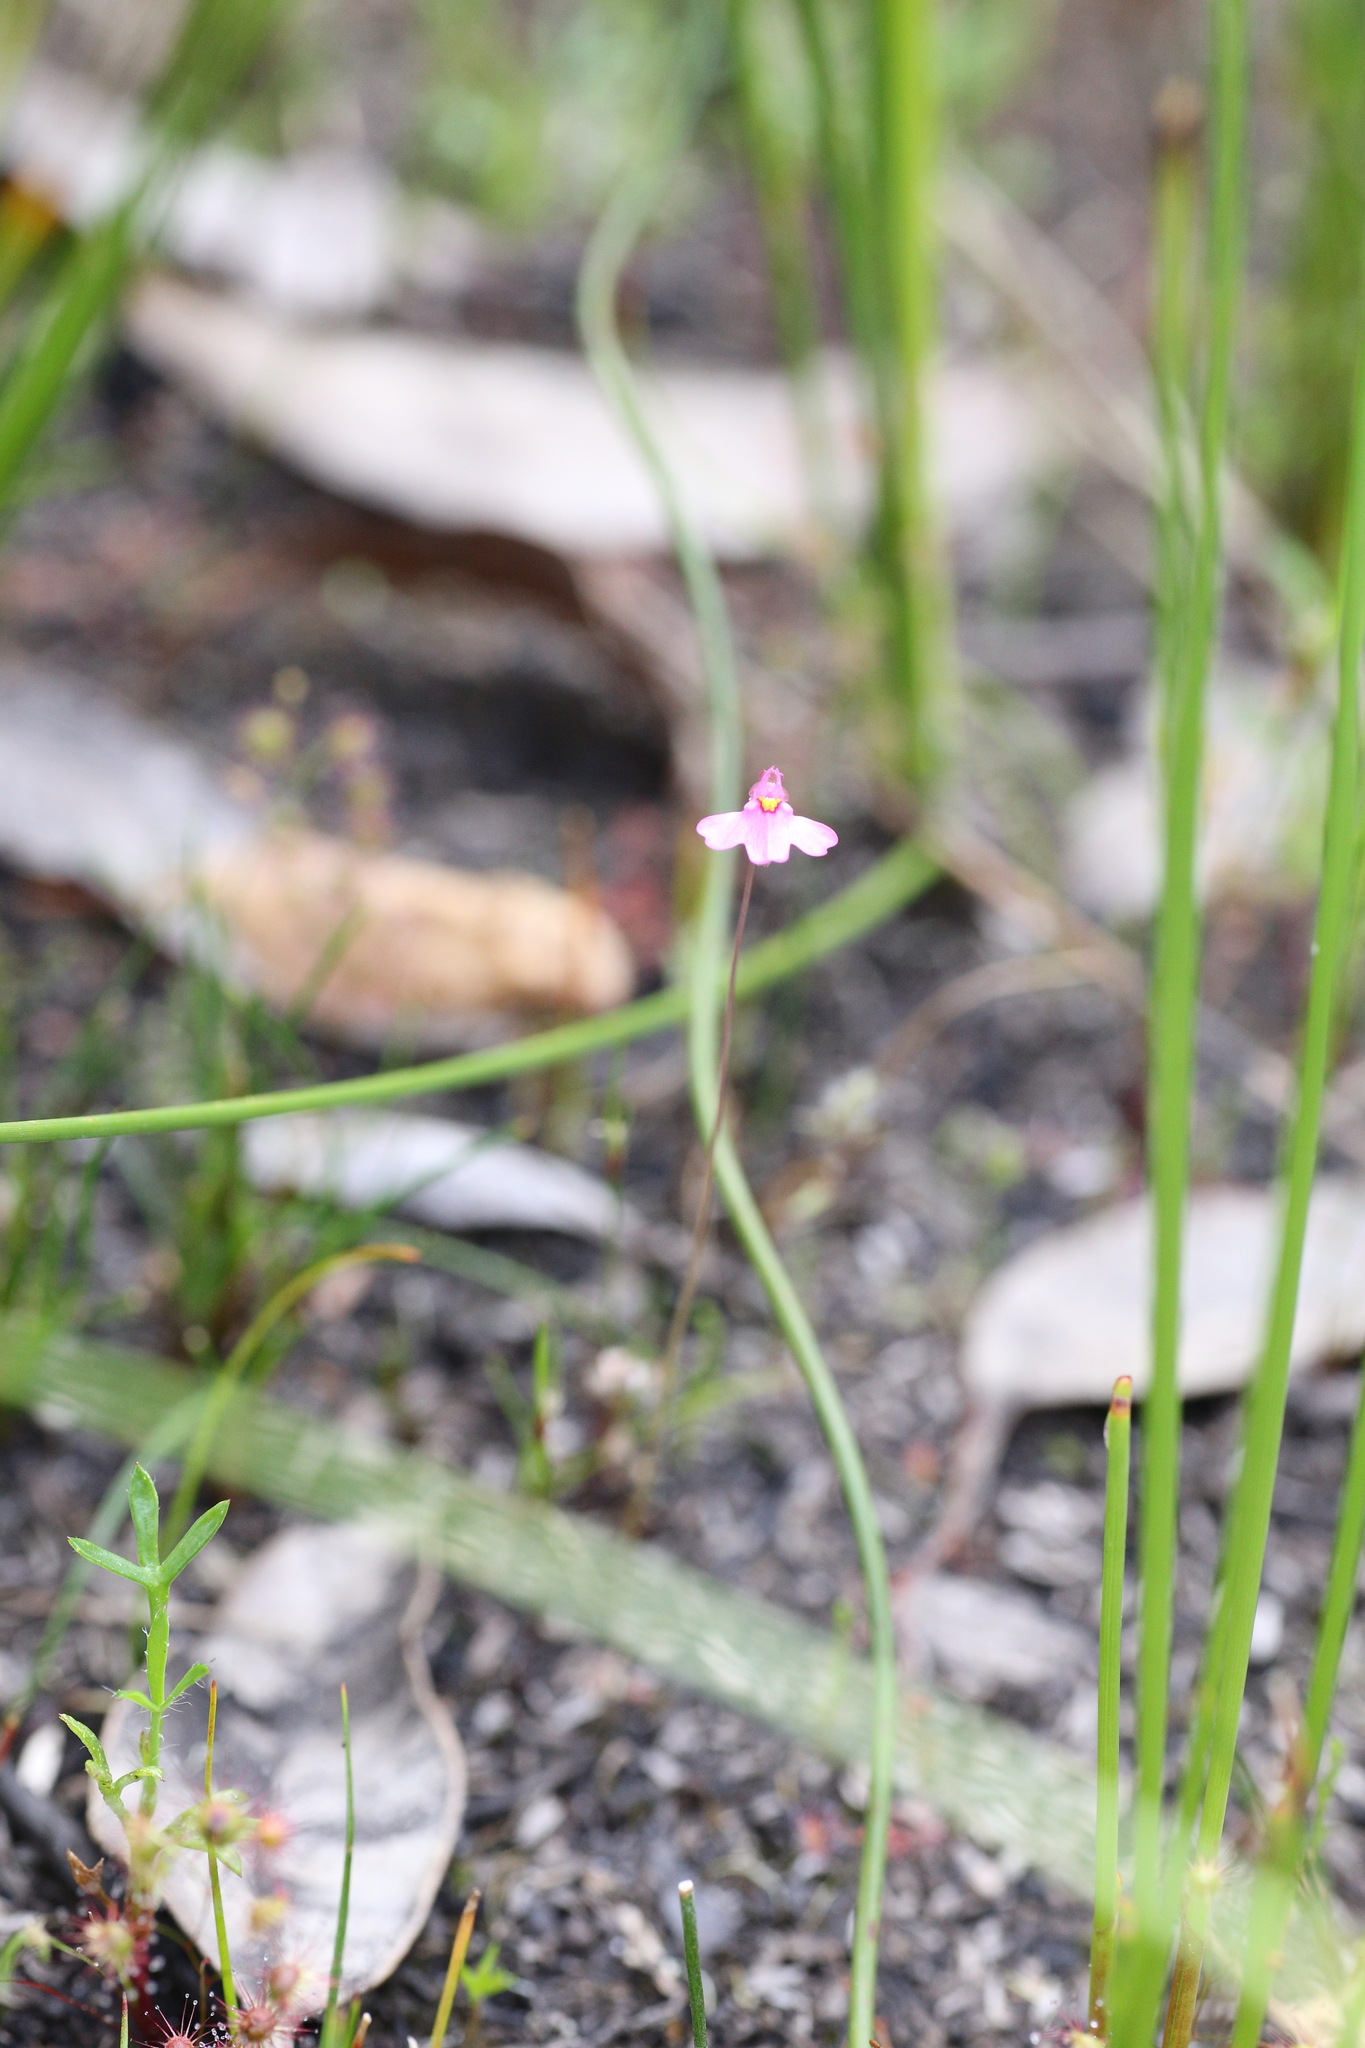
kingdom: Plantae
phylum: Tracheophyta
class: Magnoliopsida
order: Lamiales
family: Lentibulariaceae
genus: Utricularia
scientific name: Utricularia multifida
